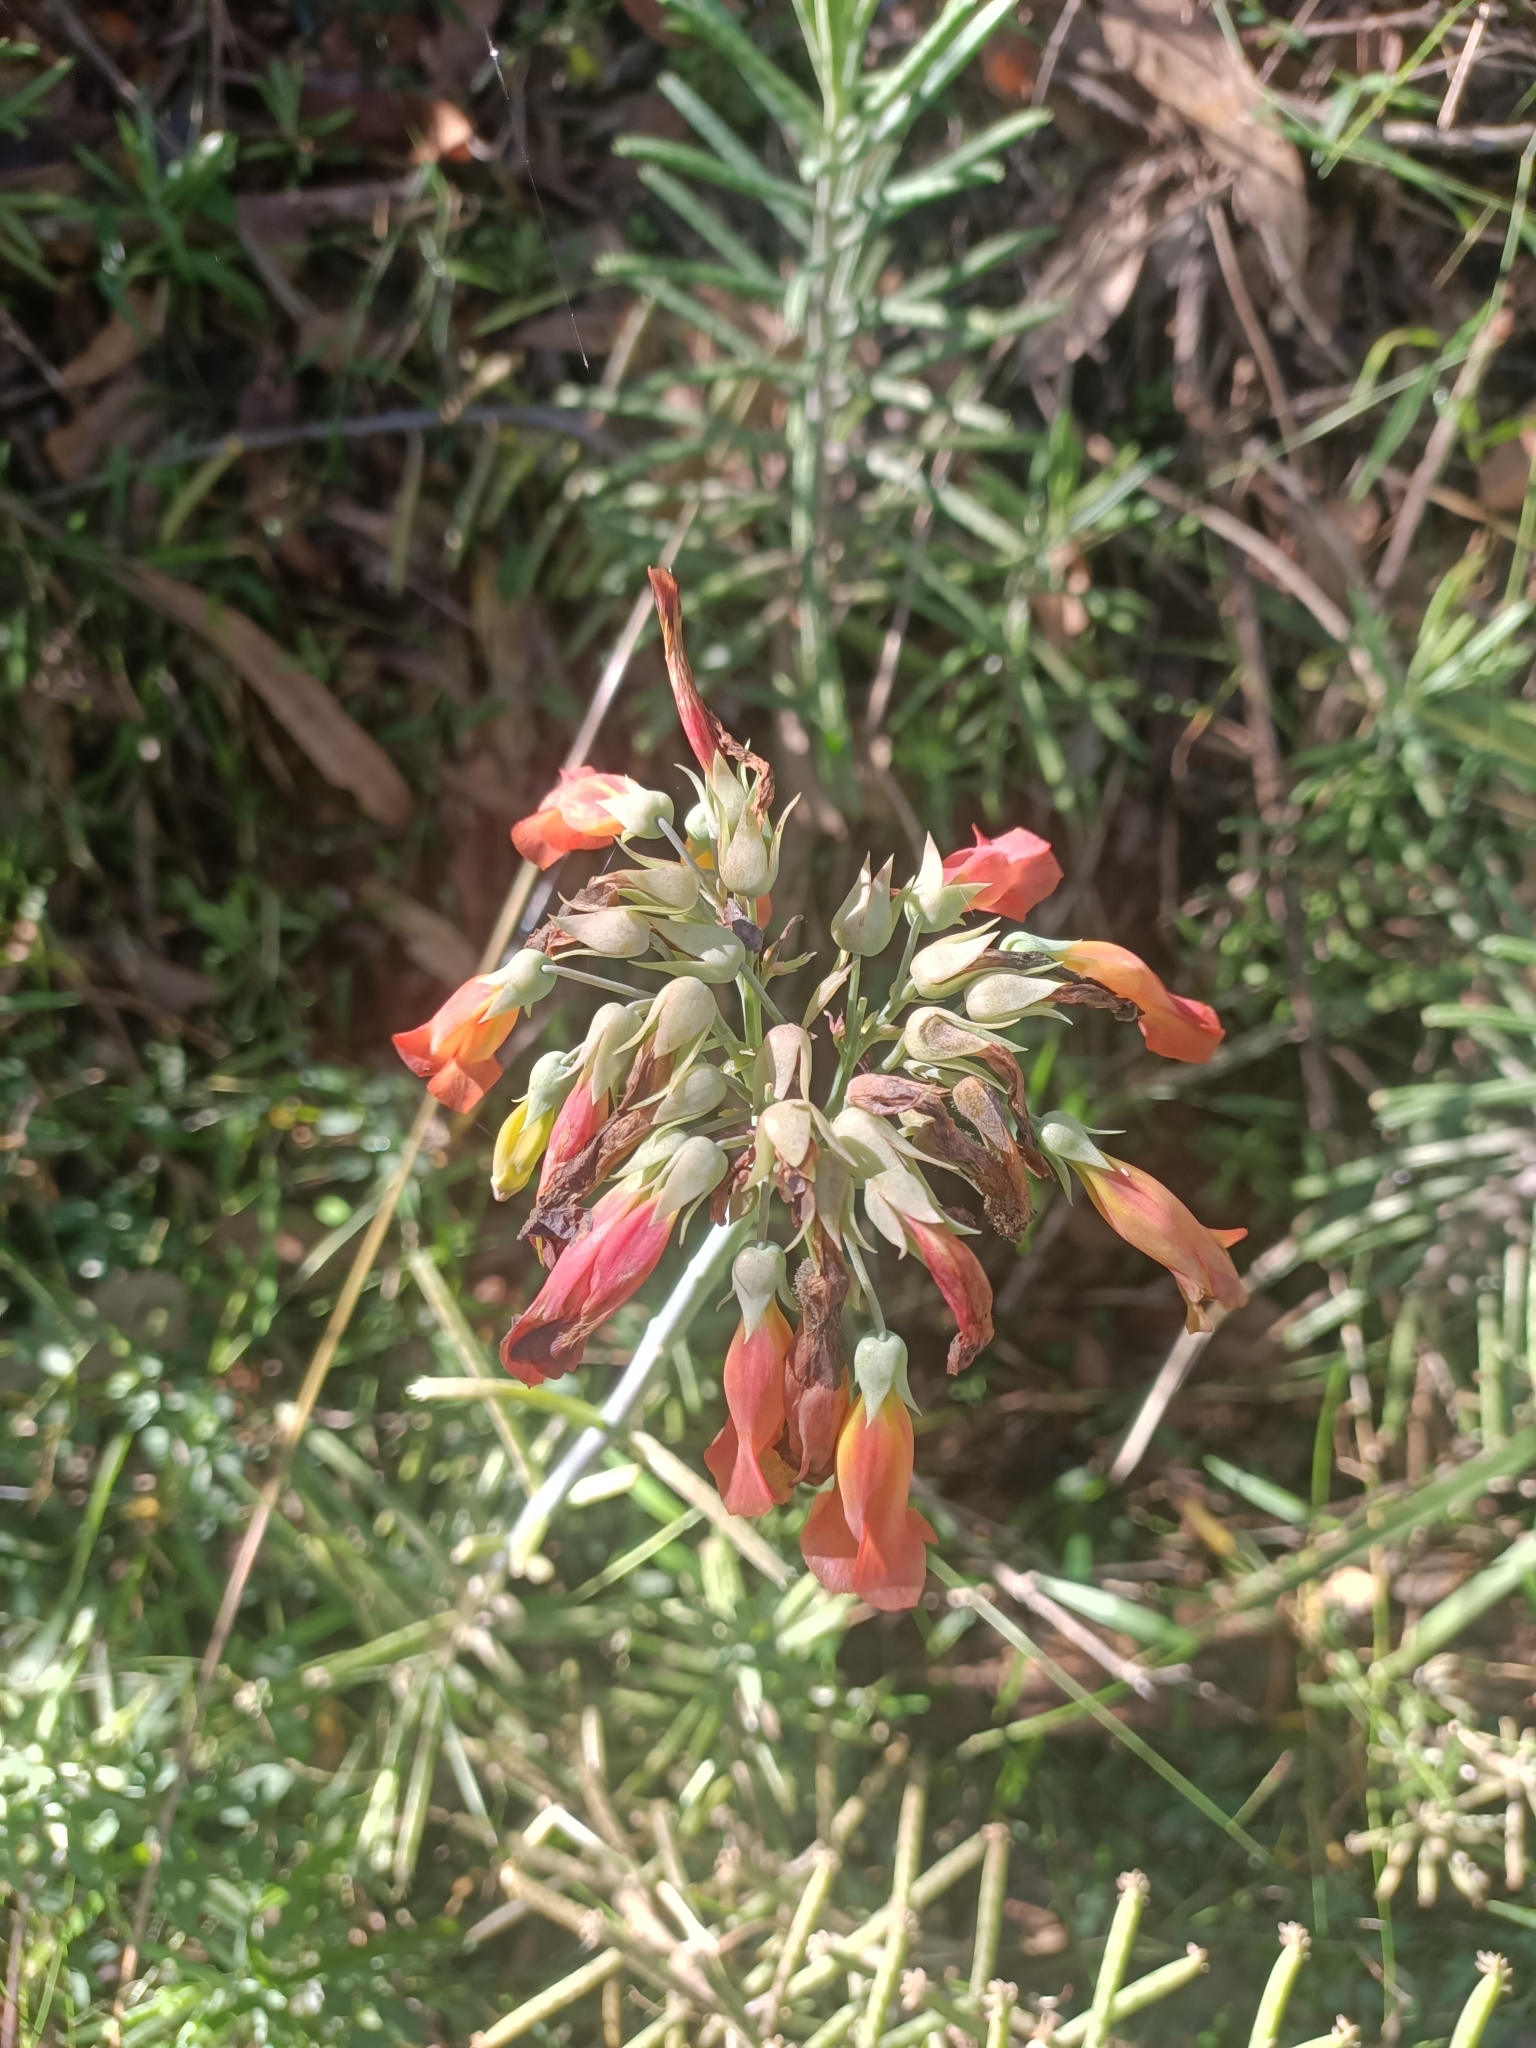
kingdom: Plantae
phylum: Tracheophyta
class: Magnoliopsida
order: Saxifragales
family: Crassulaceae
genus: Kalanchoe
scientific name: Kalanchoe delagoensis
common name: Chandelier plant
